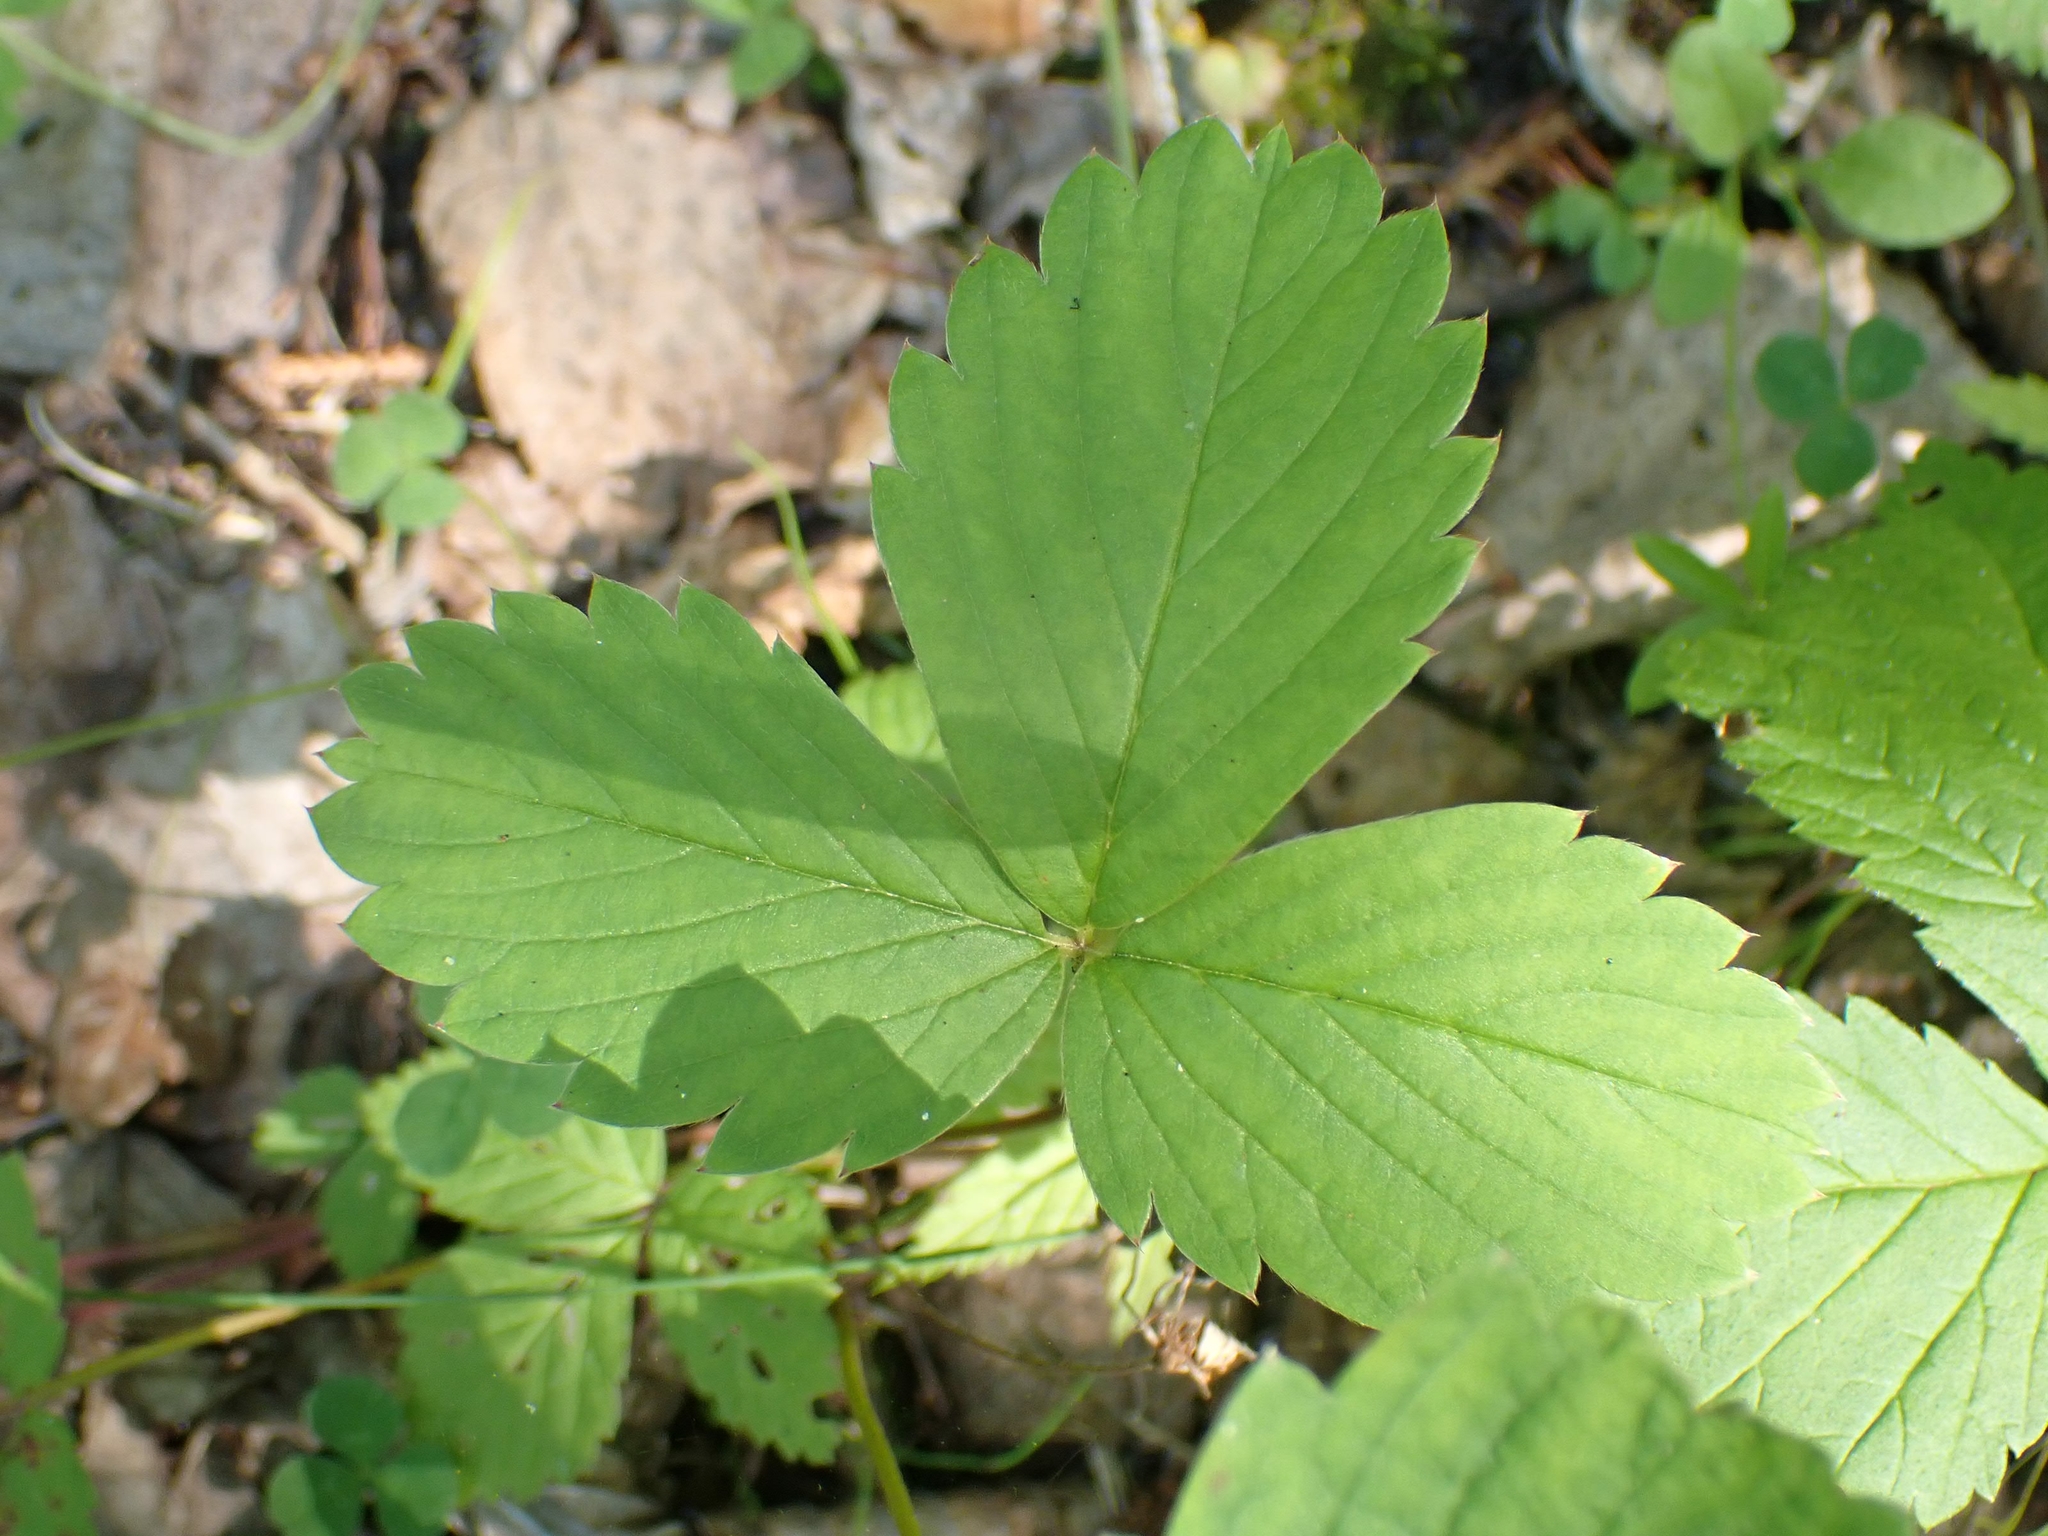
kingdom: Plantae
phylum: Tracheophyta
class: Magnoliopsida
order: Rosales
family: Rosaceae
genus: Fragaria
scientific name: Fragaria virginiana
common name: Thickleaved wild strawberry
